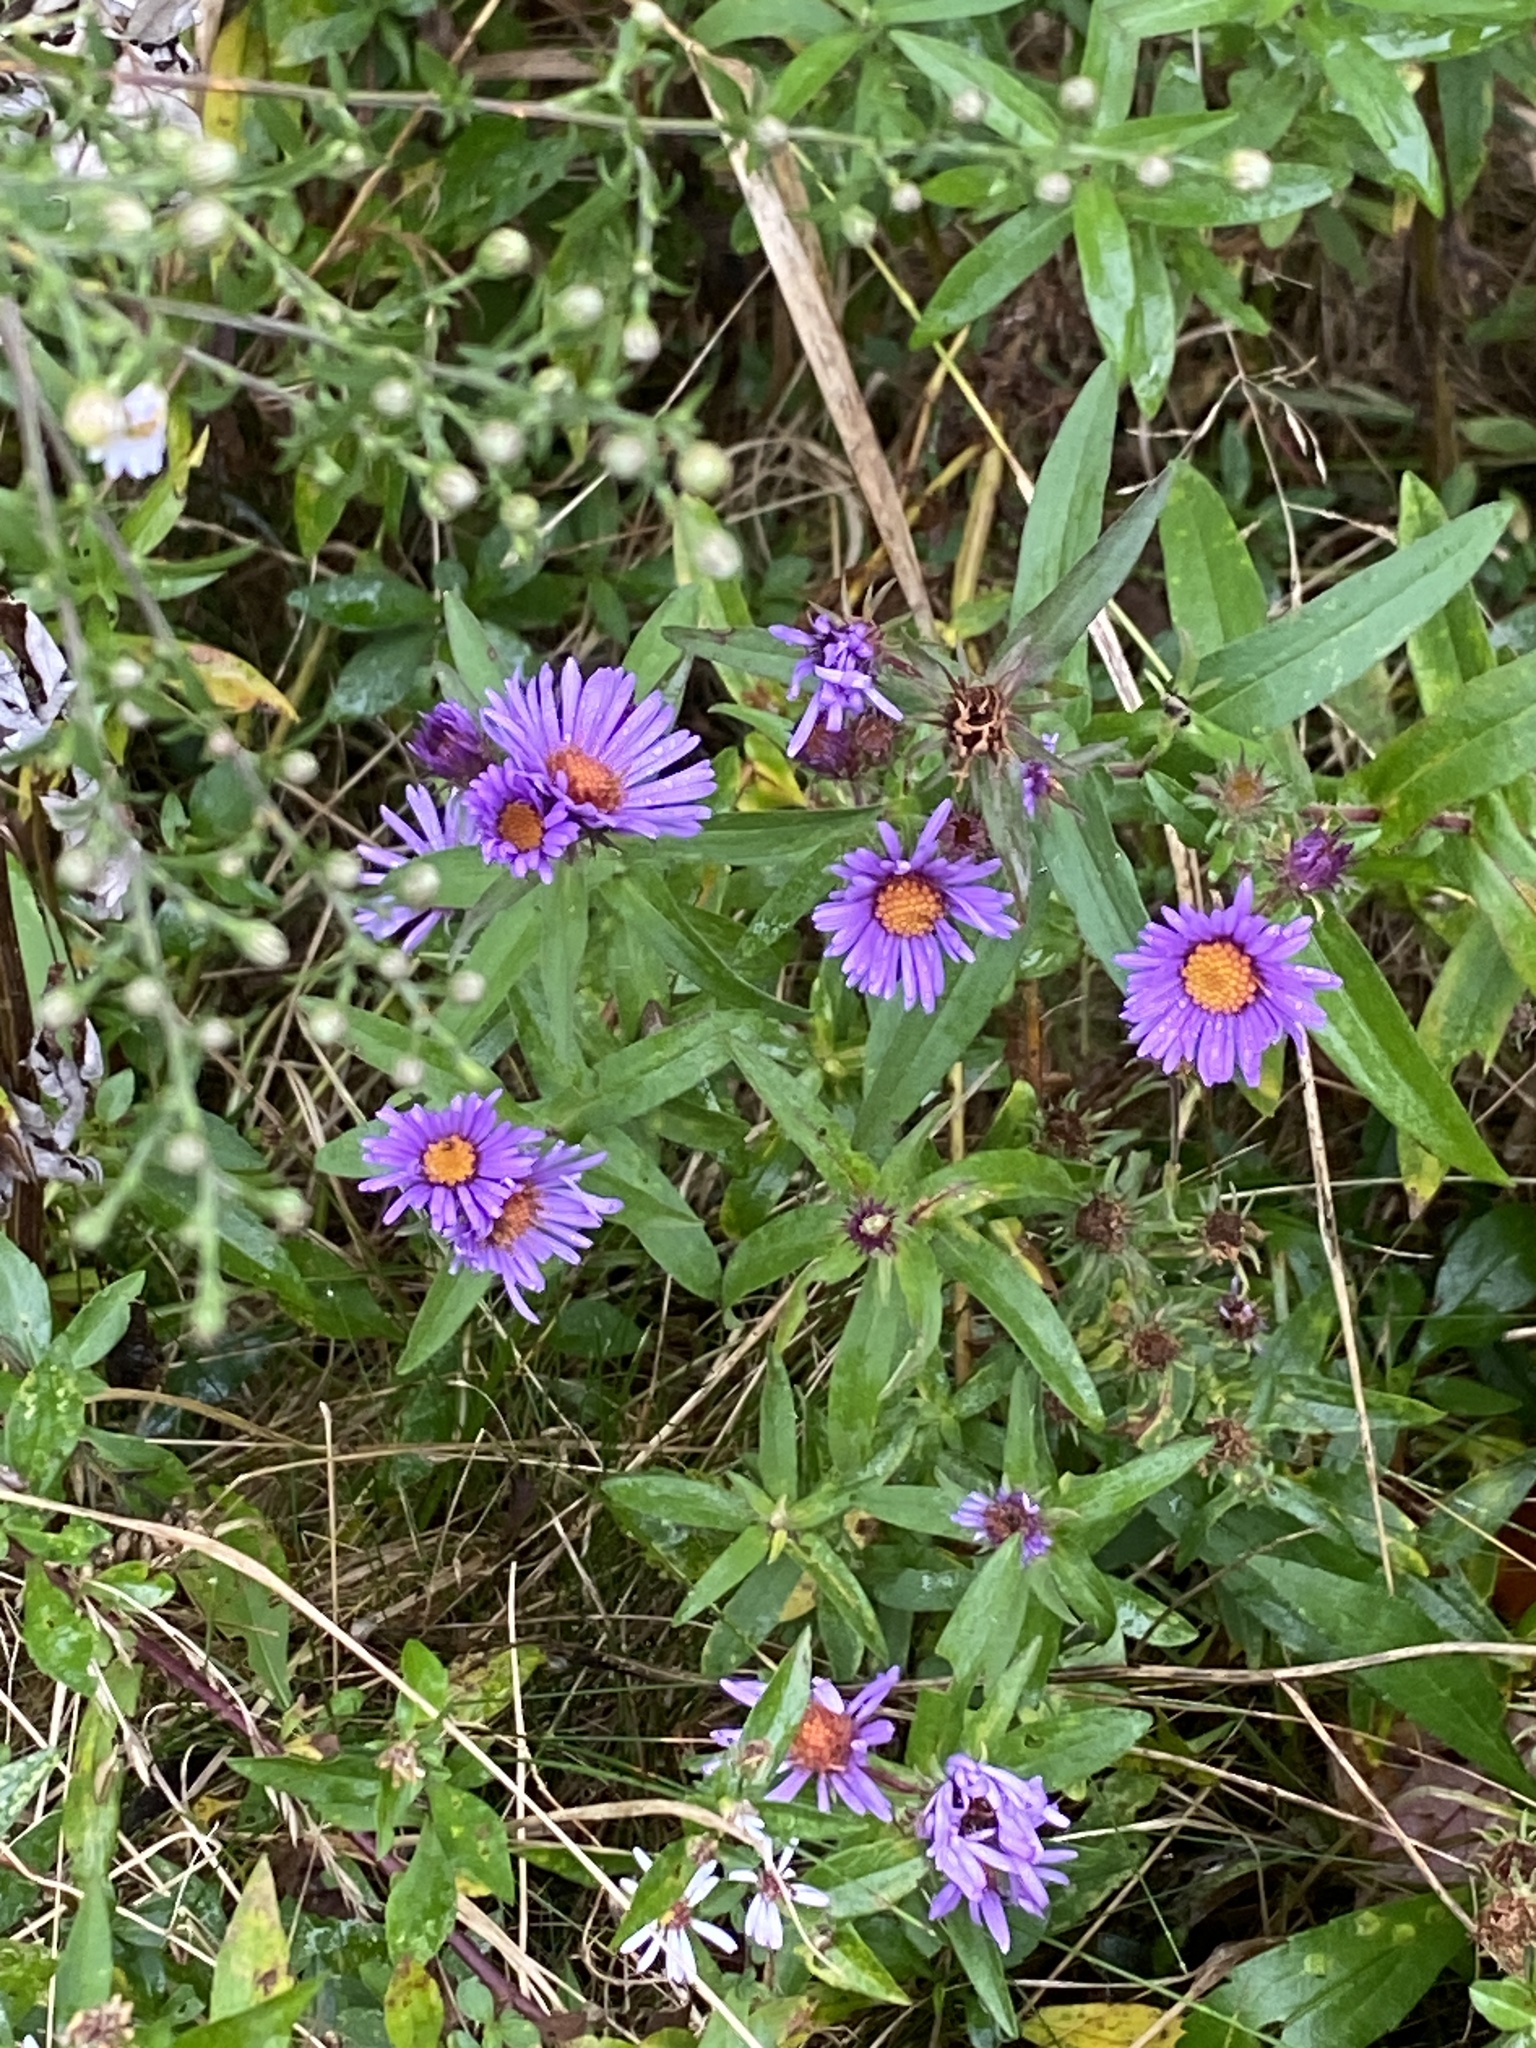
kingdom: Plantae
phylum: Tracheophyta
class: Magnoliopsida
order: Asterales
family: Asteraceae
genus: Symphyotrichum
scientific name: Symphyotrichum novae-angliae
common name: Michaelmas daisy
